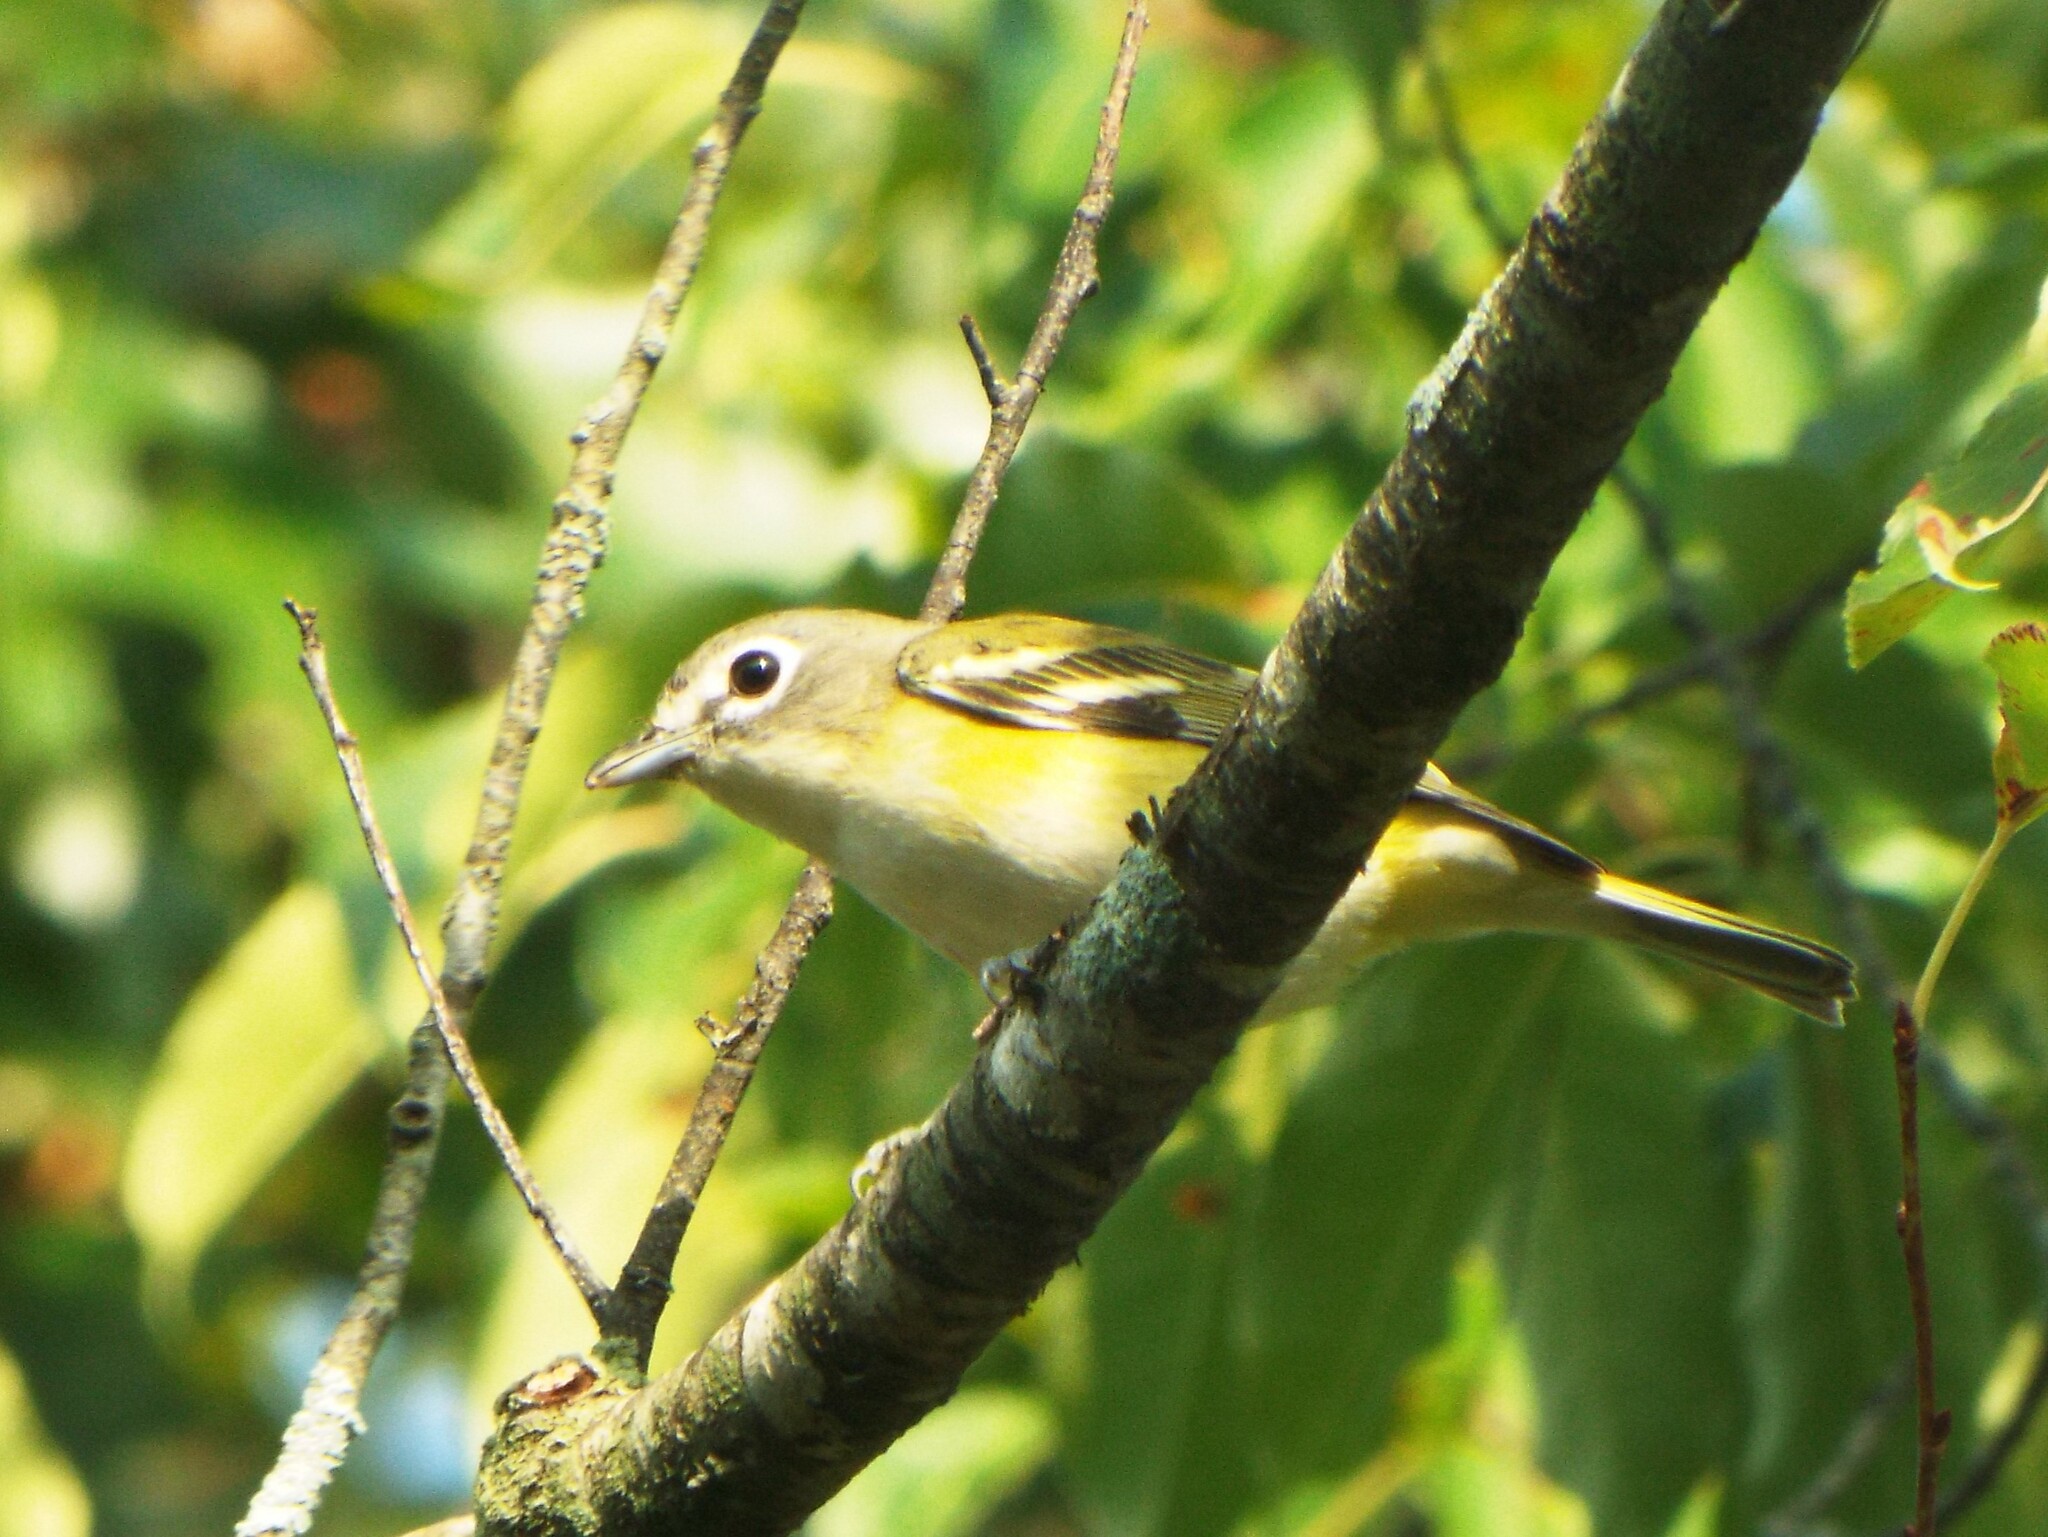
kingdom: Animalia
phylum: Chordata
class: Aves
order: Passeriformes
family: Vireonidae
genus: Vireo
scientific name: Vireo solitarius
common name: Blue-headed vireo
